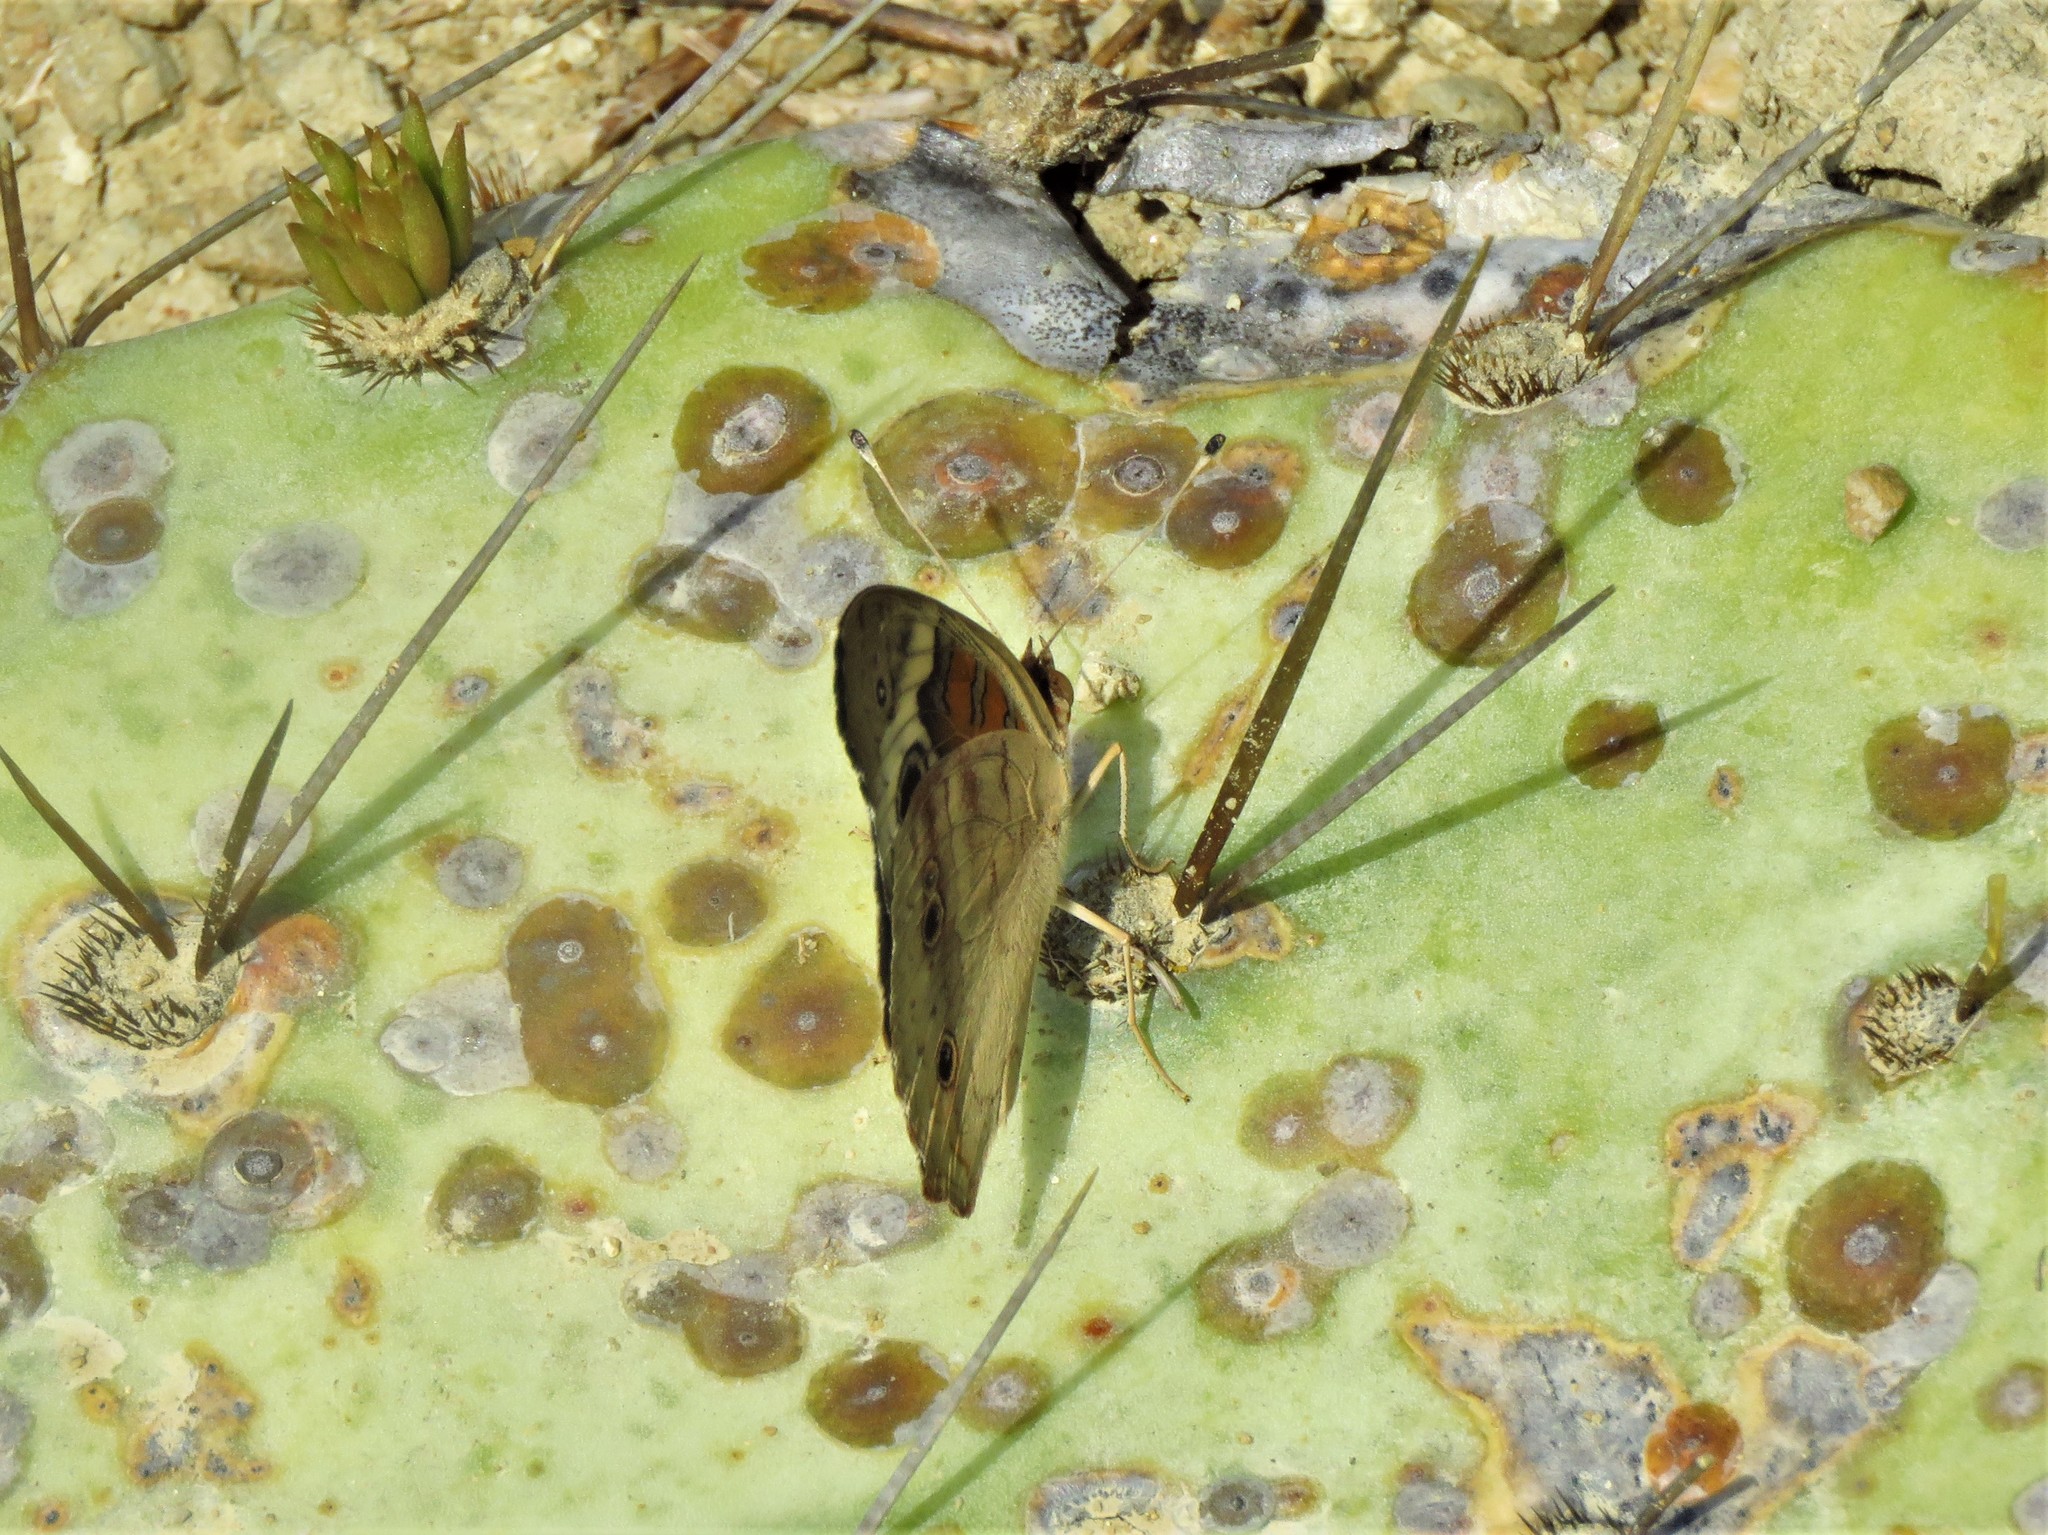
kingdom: Animalia
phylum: Arthropoda
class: Insecta
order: Lepidoptera
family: Nymphalidae
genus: Junonia
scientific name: Junonia coenia
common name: Common buckeye
